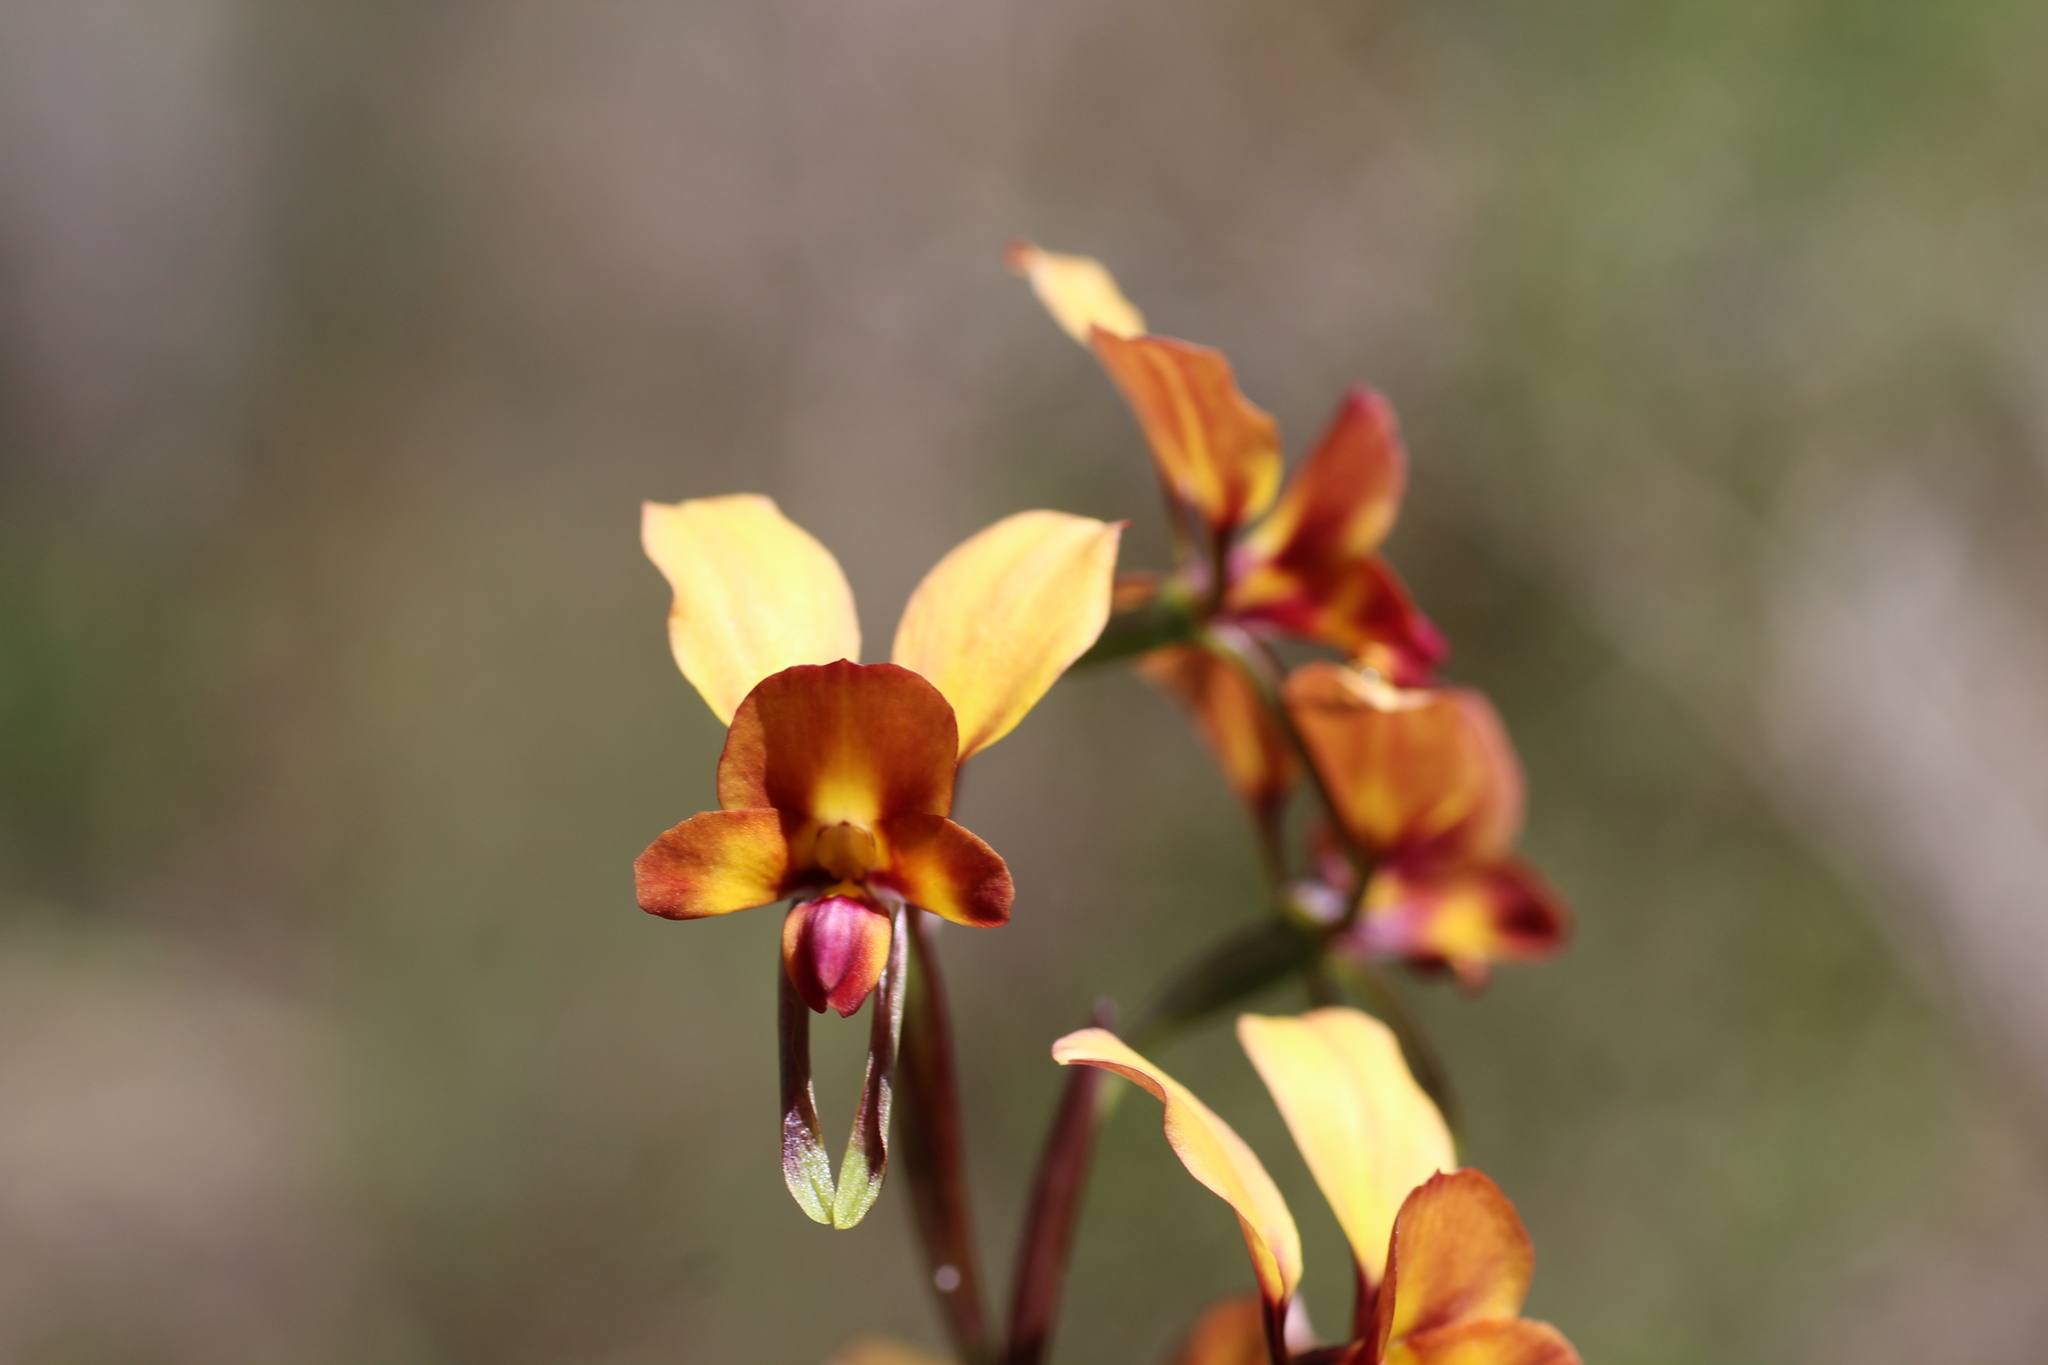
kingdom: Plantae
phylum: Tracheophyta
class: Liliopsida
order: Asparagales
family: Orchidaceae
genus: Diuris
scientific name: Diuris jonesii
